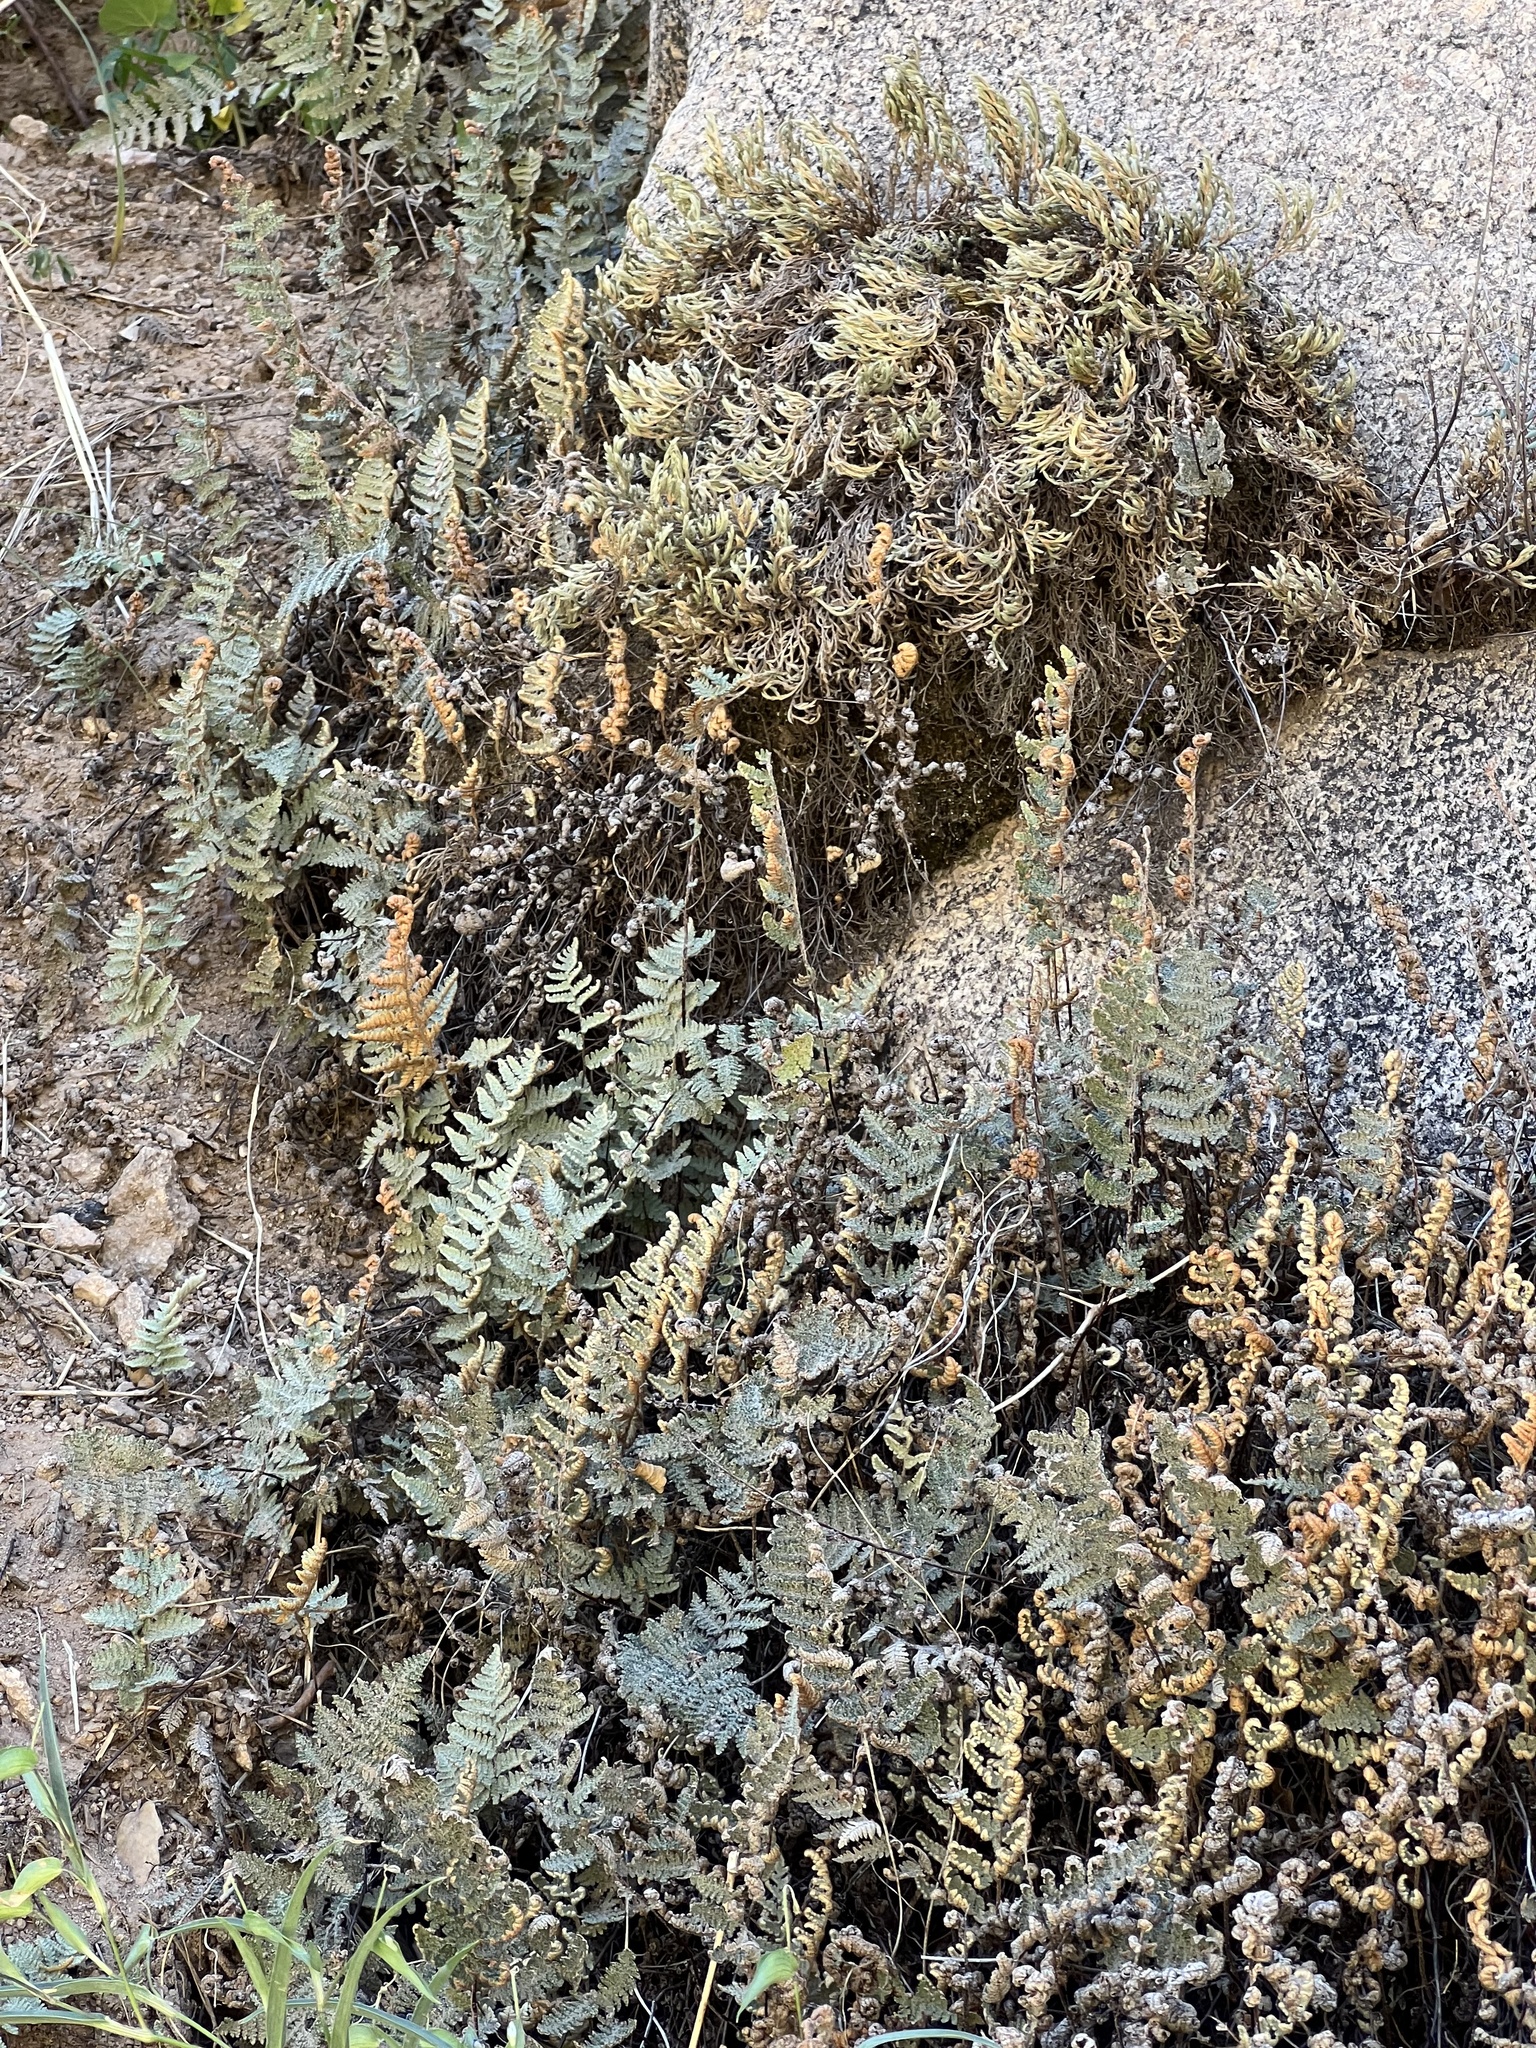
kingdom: Plantae
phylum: Tracheophyta
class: Polypodiopsida
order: Polypodiales
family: Pteridaceae
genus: Myriopteris
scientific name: Myriopteris lindheimeri
